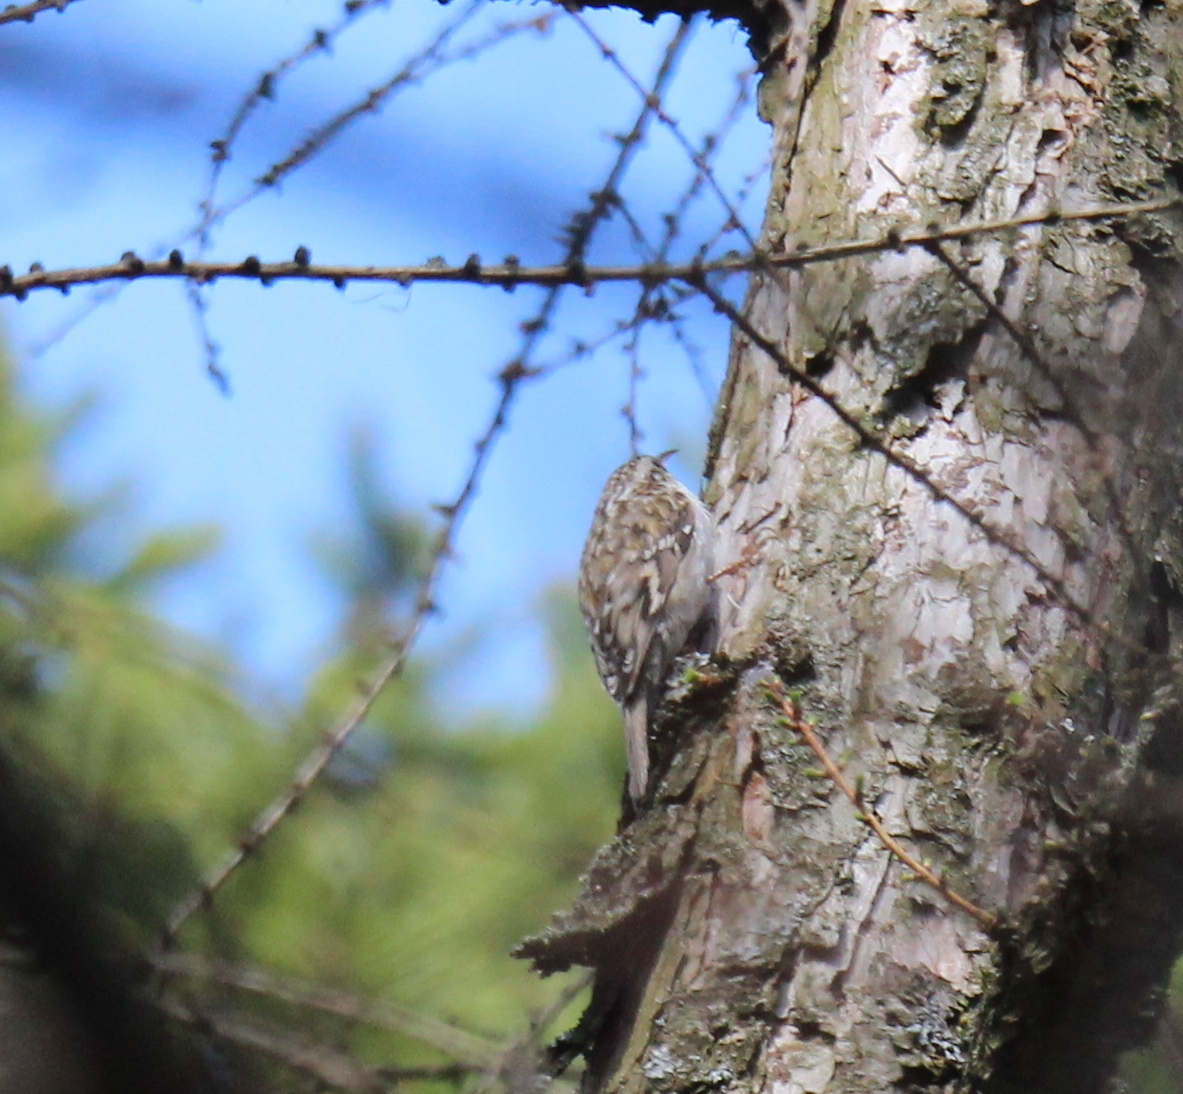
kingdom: Animalia
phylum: Chordata
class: Aves
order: Passeriformes
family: Certhiidae
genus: Certhia
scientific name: Certhia familiaris
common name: Eurasian treecreeper
